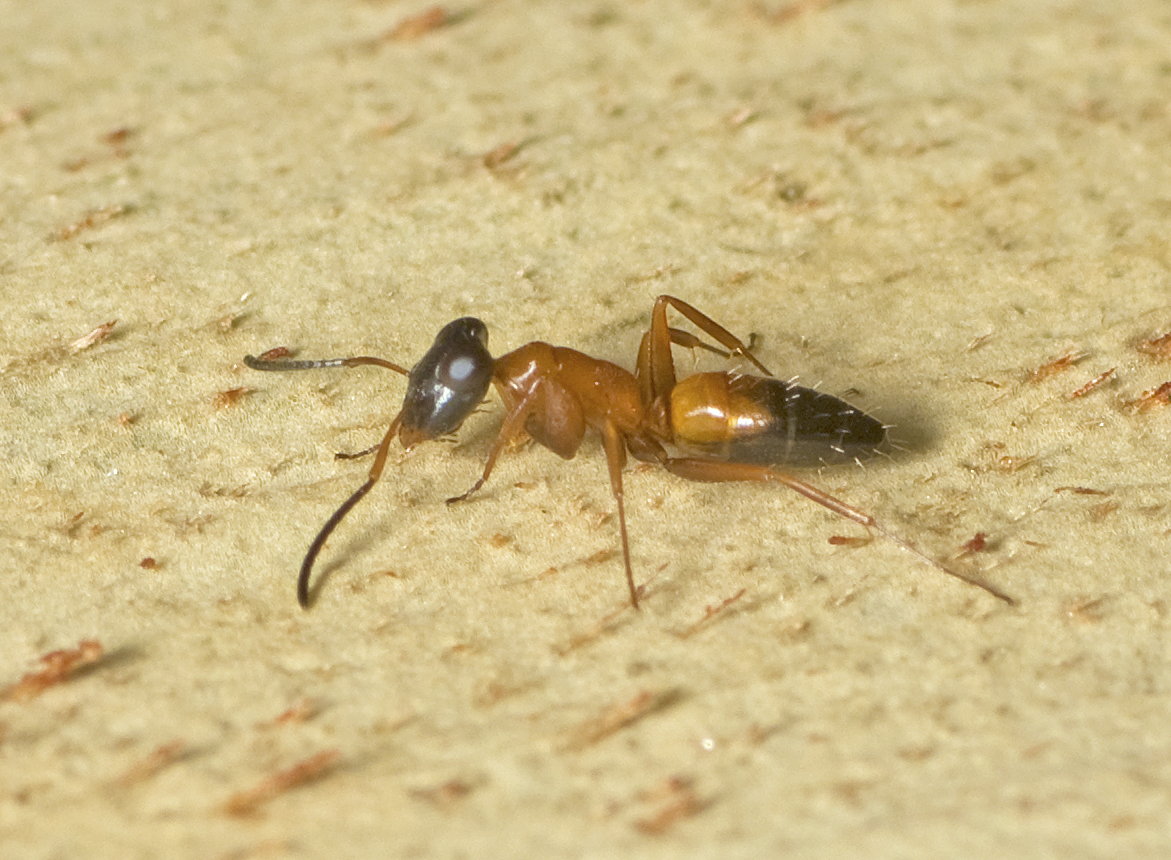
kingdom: Animalia
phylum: Arthropoda
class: Insecta
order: Hymenoptera
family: Formicidae
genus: Opisthopsis
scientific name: Opisthopsis rufithorax
